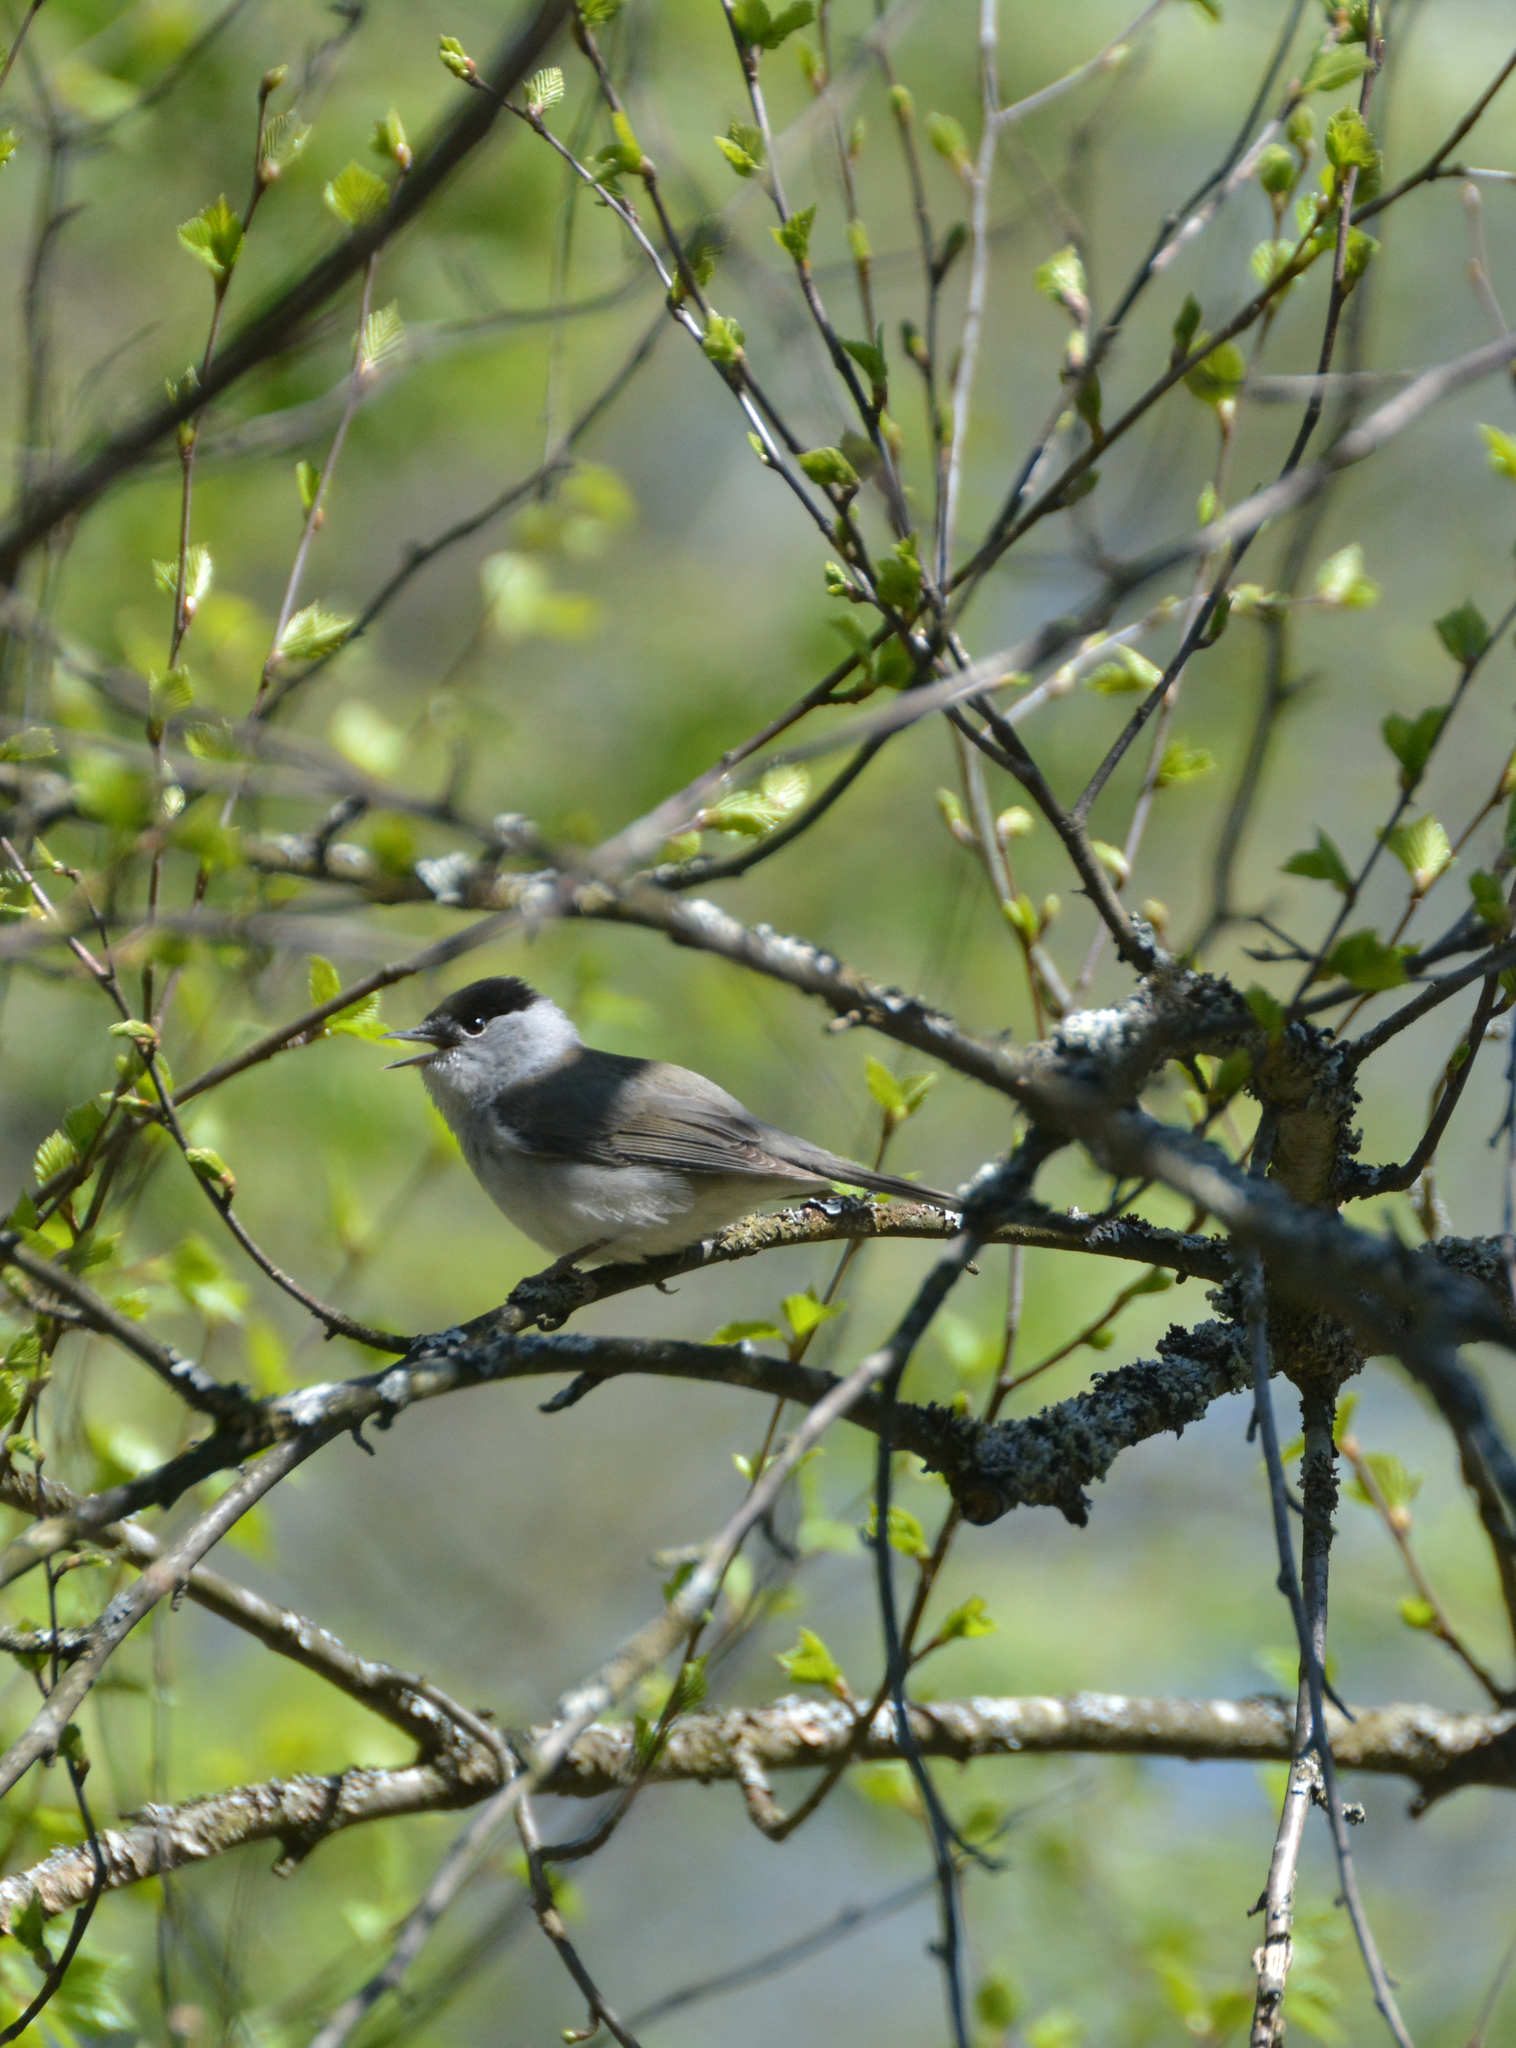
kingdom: Animalia
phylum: Chordata
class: Aves
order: Passeriformes
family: Sylviidae
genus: Sylvia
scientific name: Sylvia atricapilla
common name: Eurasian blackcap
